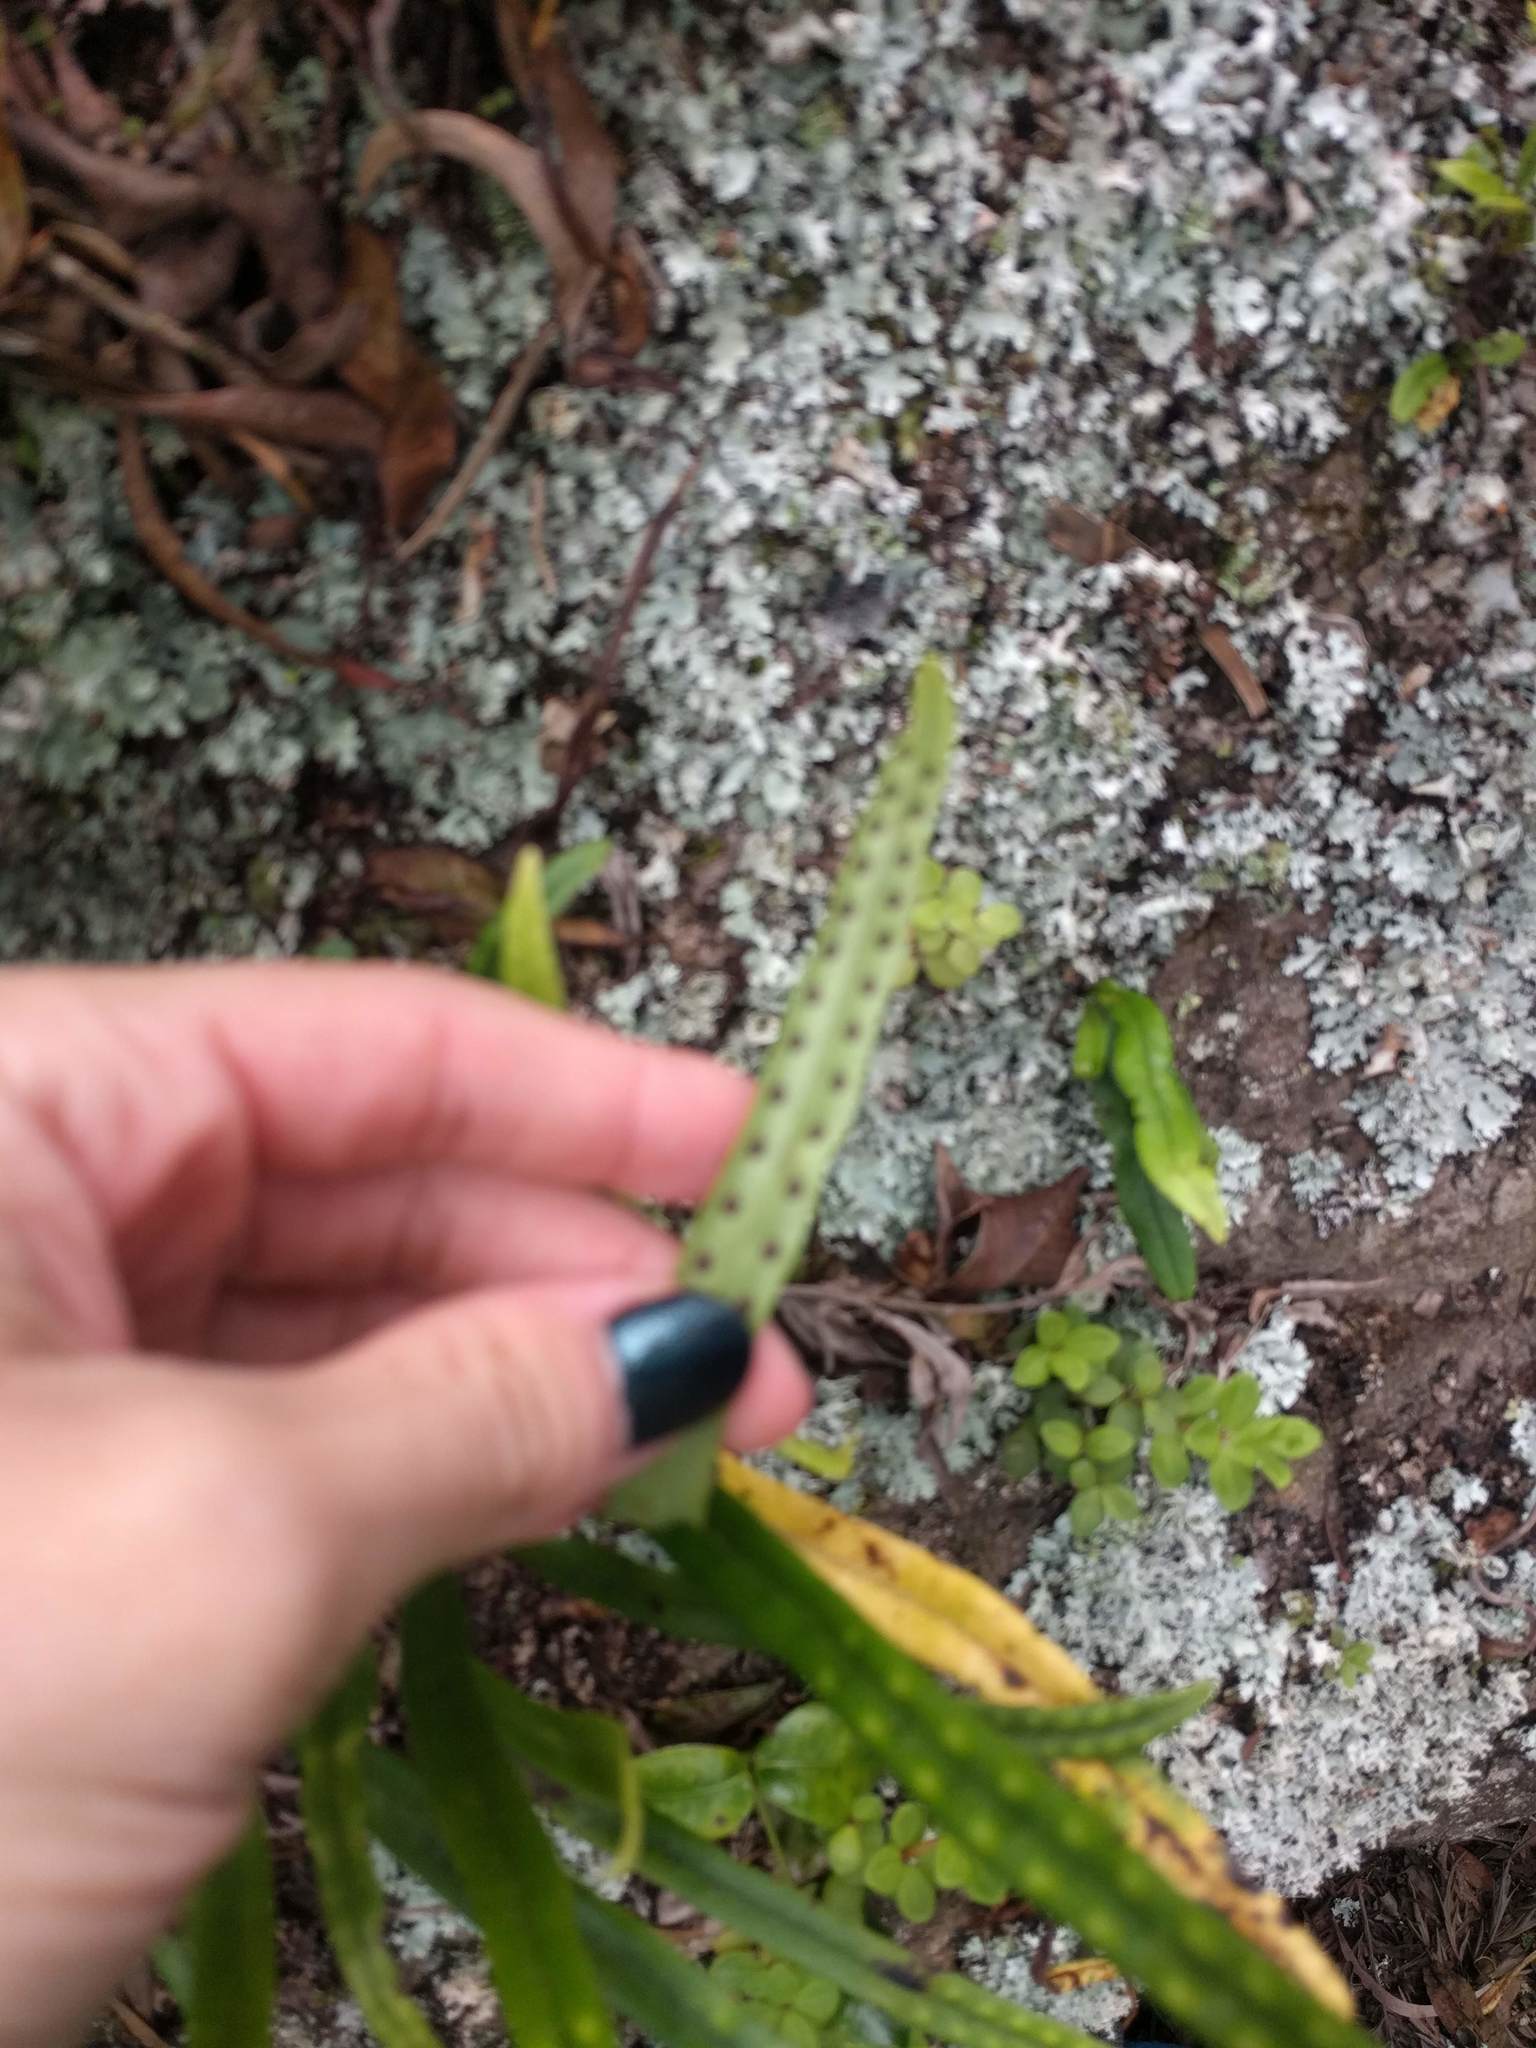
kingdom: Plantae
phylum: Tracheophyta
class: Polypodiopsida
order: Polypodiales
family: Polypodiaceae
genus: Lepisorus
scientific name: Lepisorus thunbergianus
